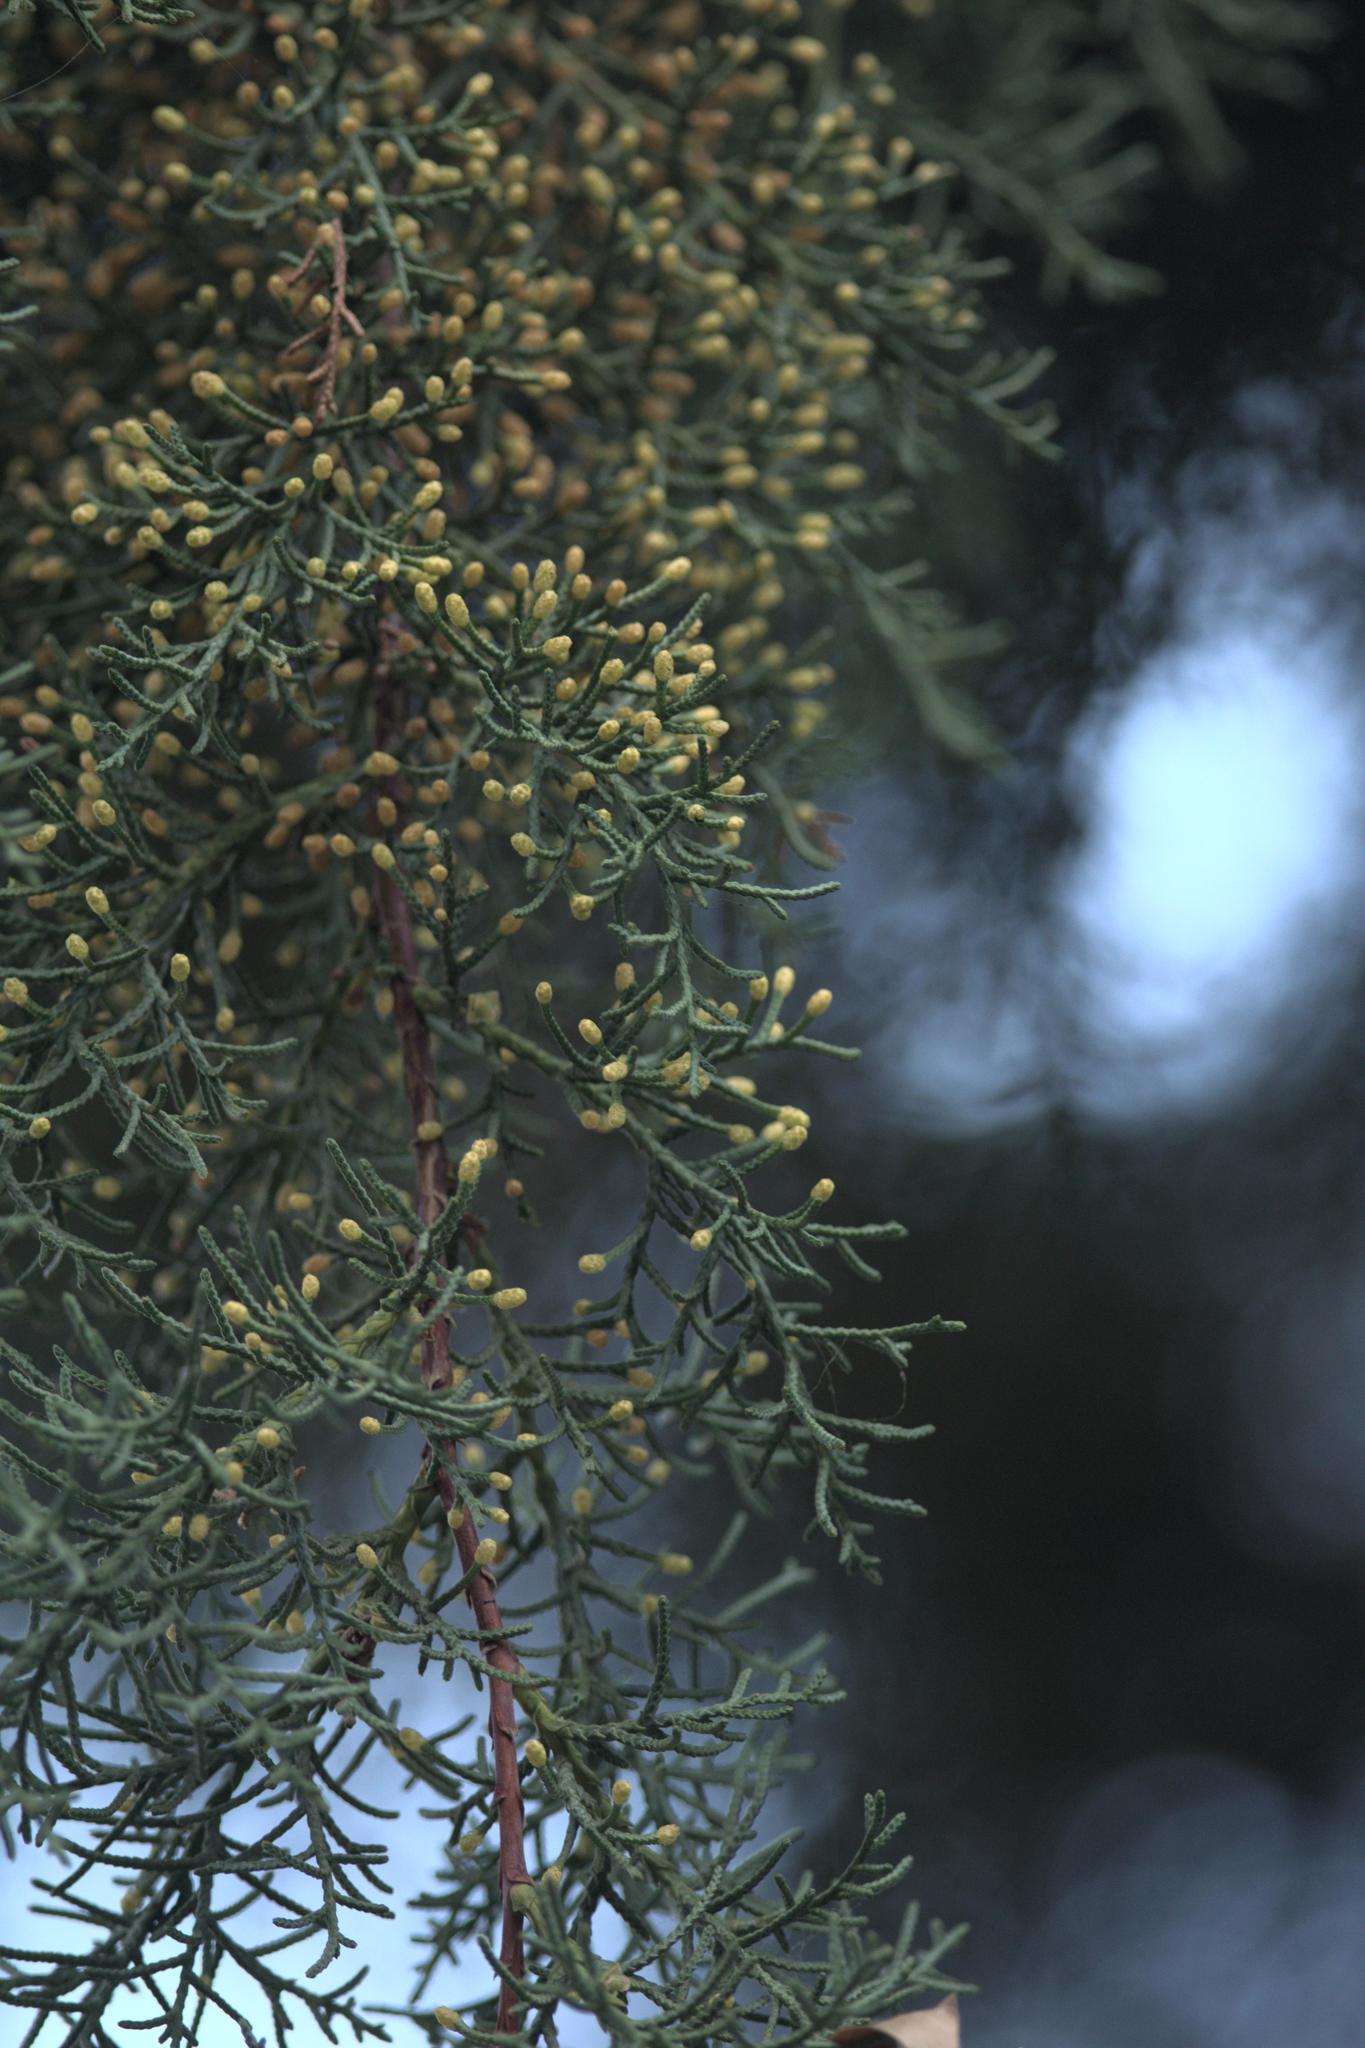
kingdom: Plantae
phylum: Tracheophyta
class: Pinopsida
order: Pinales
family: Cupressaceae
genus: Cupressus
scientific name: Cupressus torulosa
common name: Himalayan cypress
